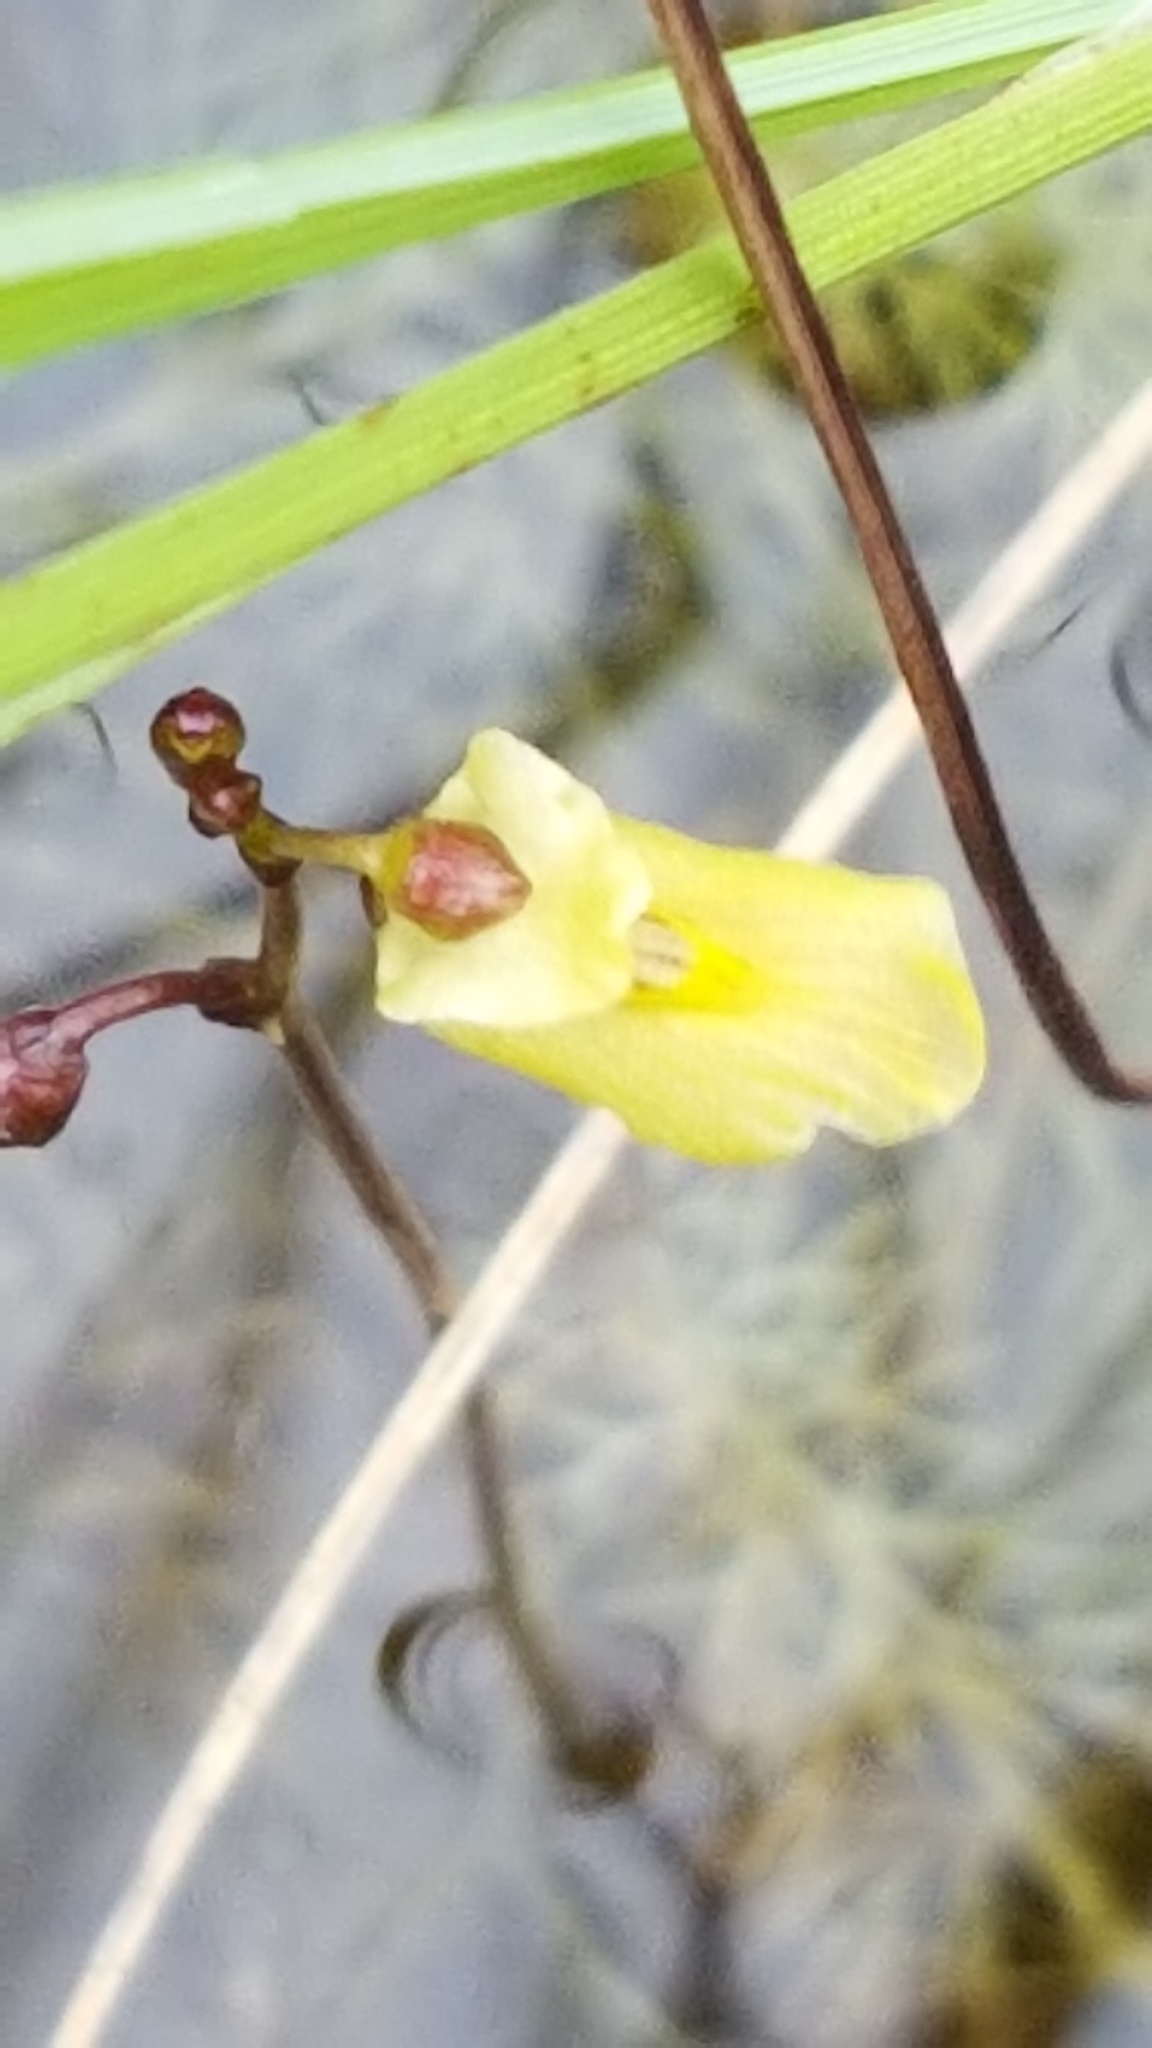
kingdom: Plantae
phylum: Tracheophyta
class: Magnoliopsida
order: Lamiales
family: Lentibulariaceae
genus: Utricularia
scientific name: Utricularia minor
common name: Lesser bladderwort
